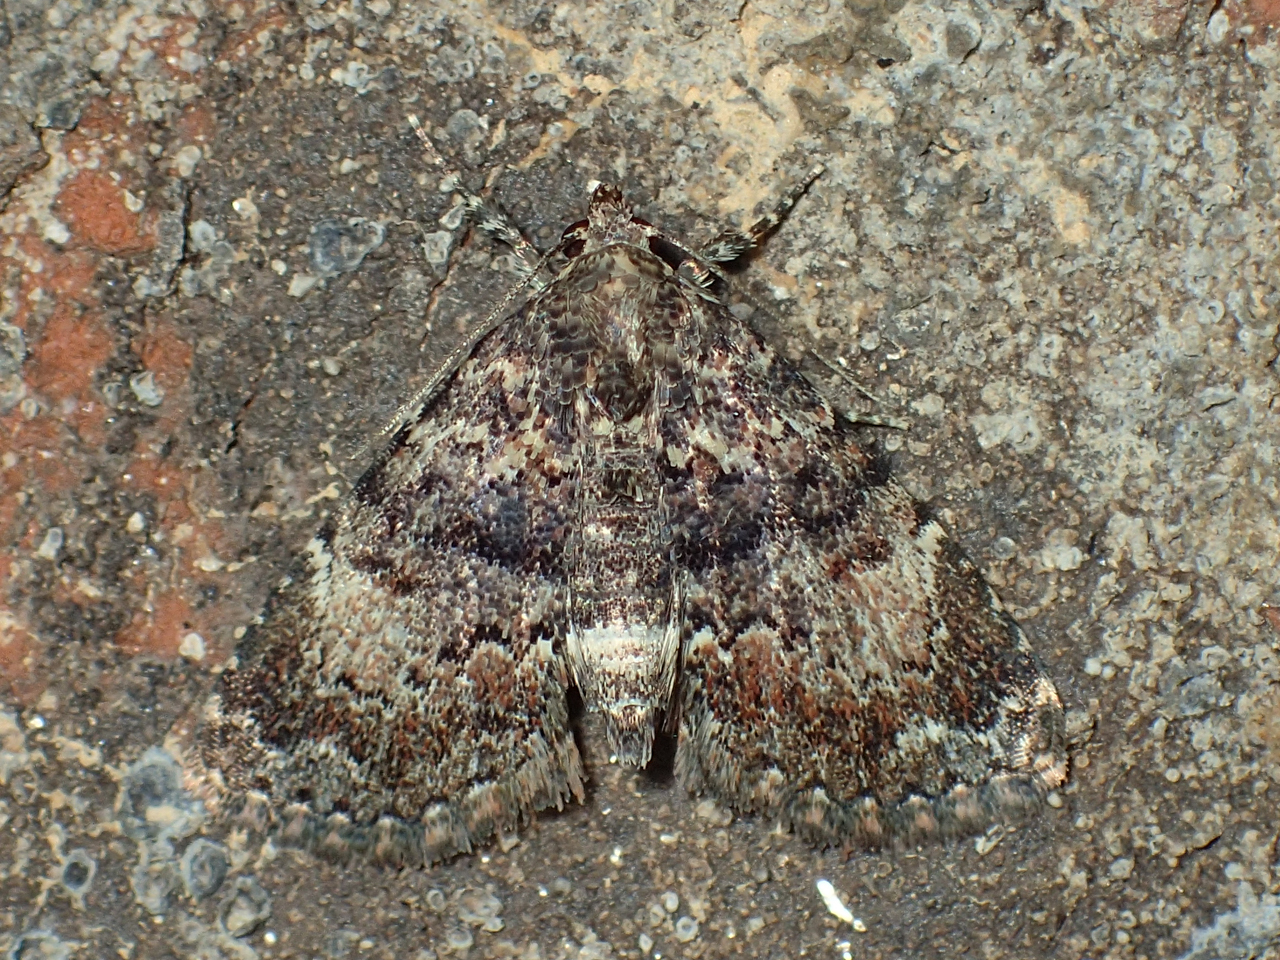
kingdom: Animalia
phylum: Arthropoda
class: Insecta
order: Lepidoptera
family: Erebidae
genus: Metalectra
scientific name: Metalectra richardsi
